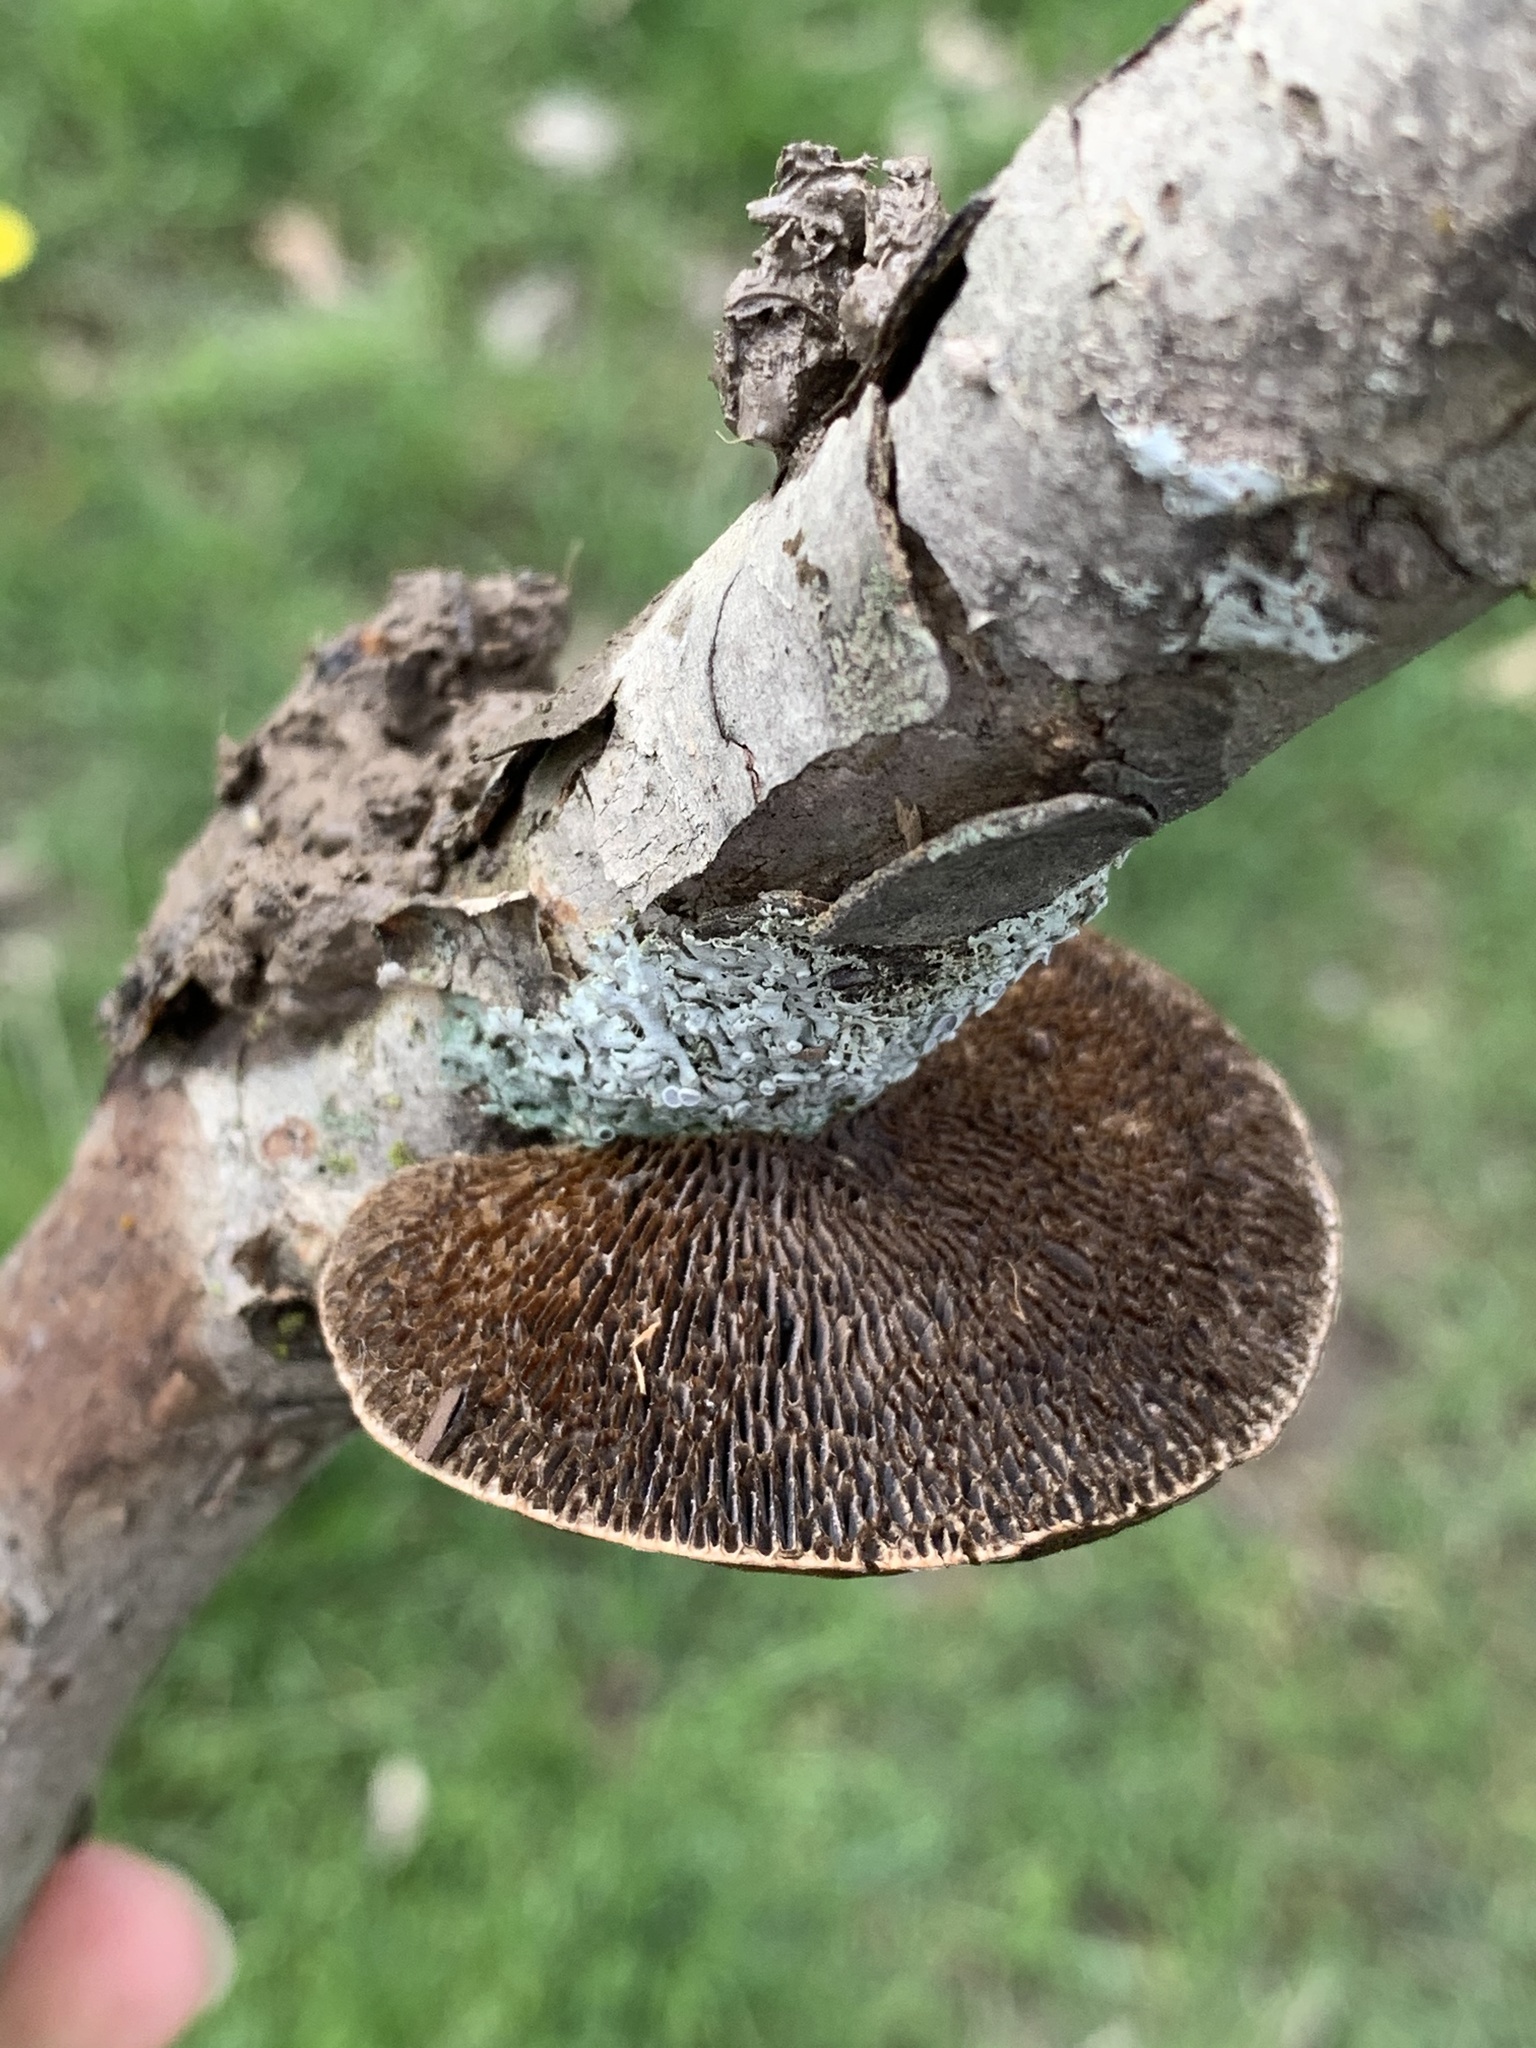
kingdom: Fungi
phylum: Basidiomycota
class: Agaricomycetes
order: Polyporales
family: Polyporaceae
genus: Daedaleopsis
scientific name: Daedaleopsis confragosa
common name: Blushing bracket
